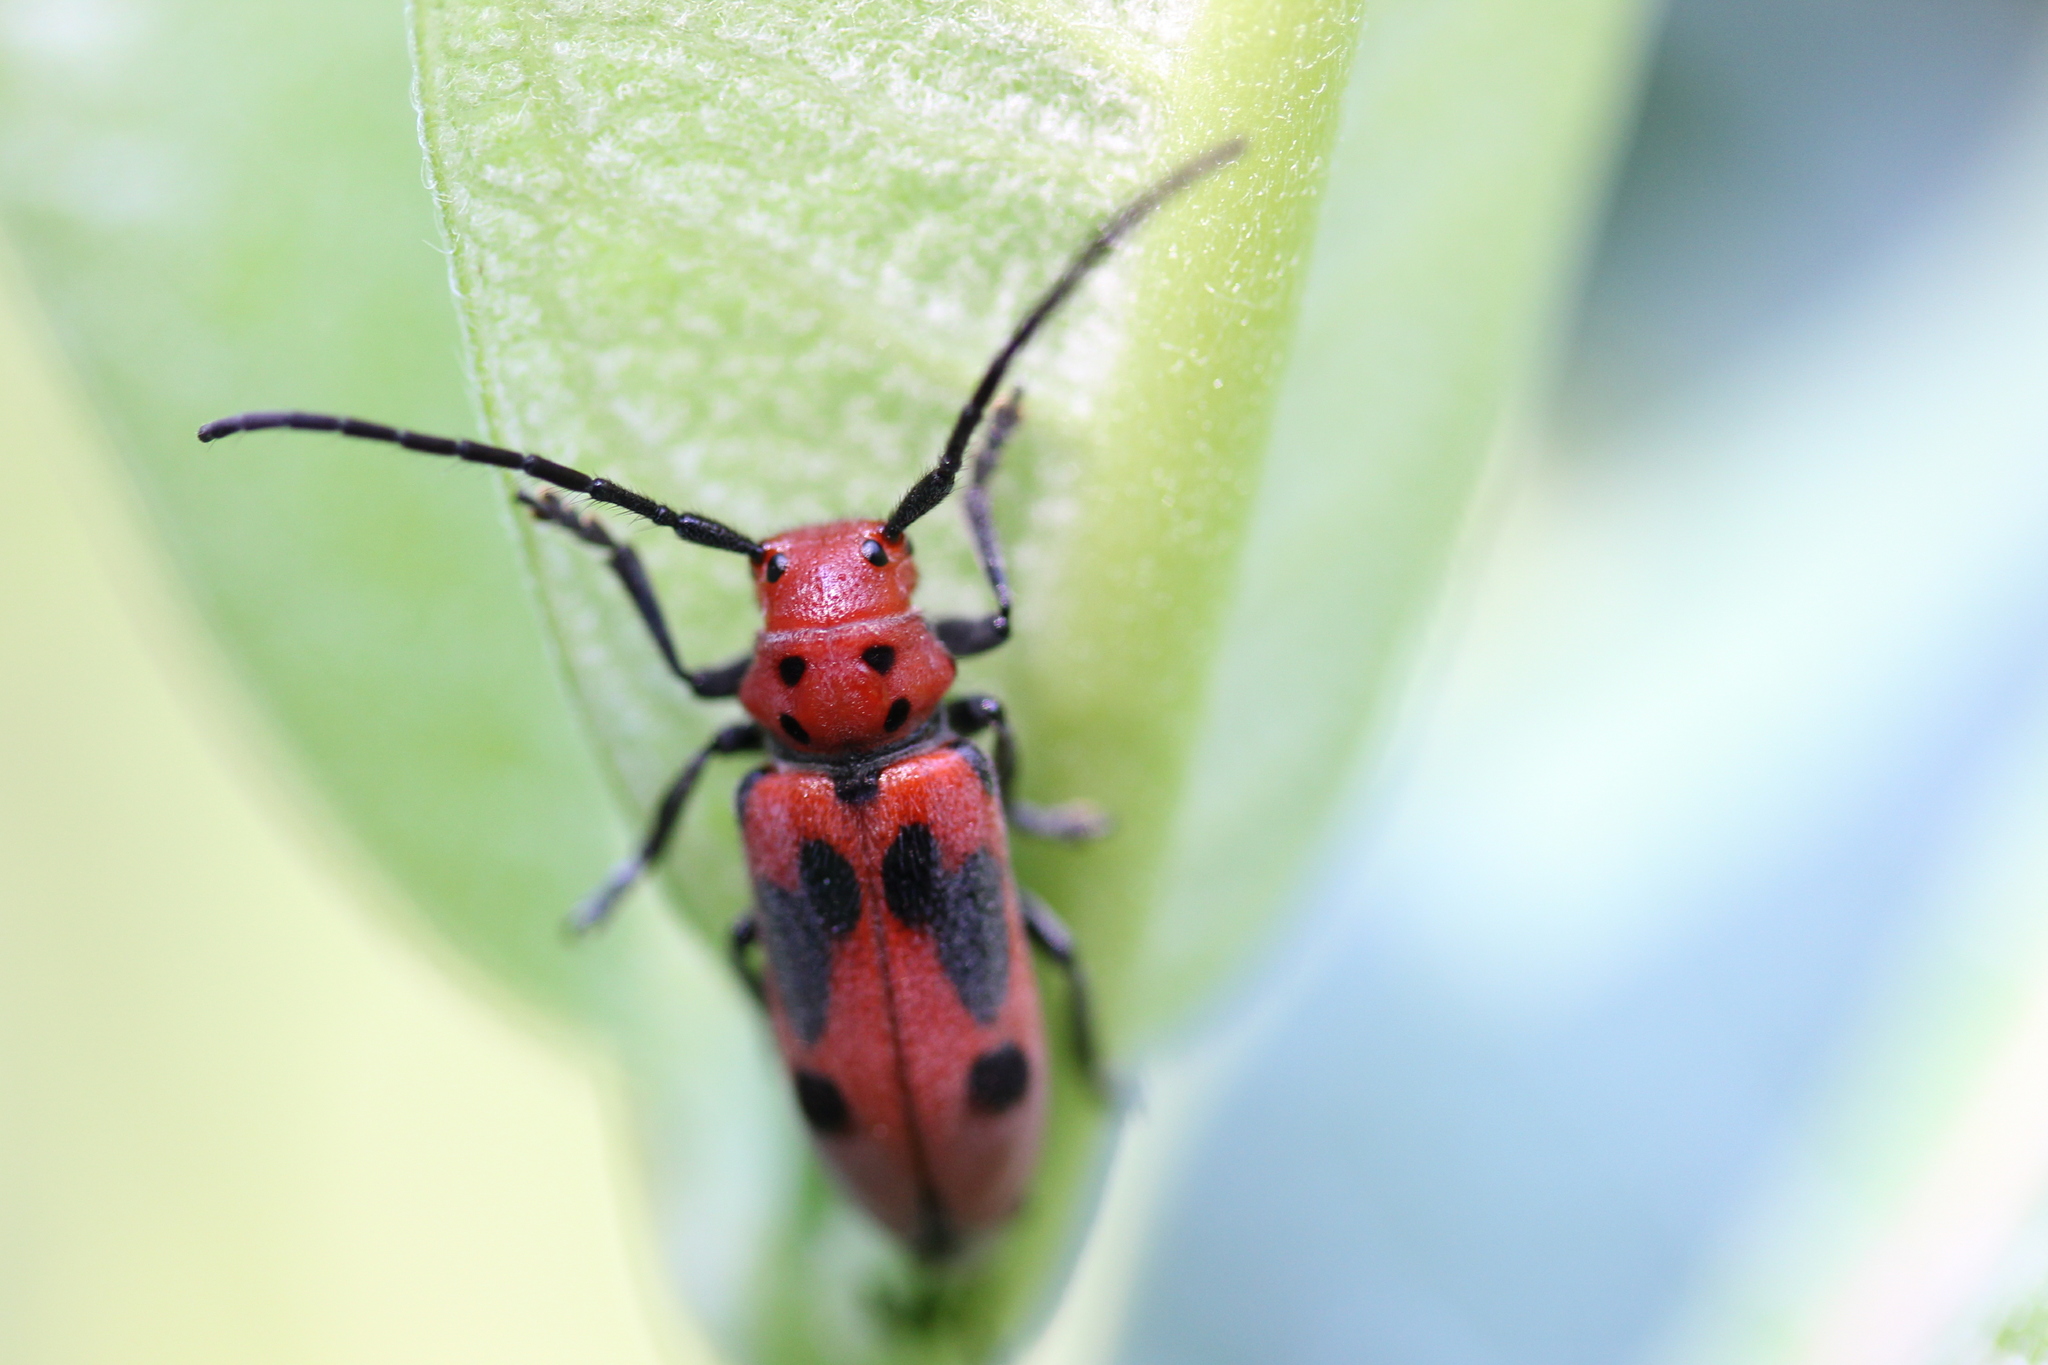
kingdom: Animalia
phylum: Arthropoda
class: Insecta
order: Coleoptera
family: Cerambycidae
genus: Tetraopes
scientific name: Tetraopes tetrophthalmus
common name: Red milkweed beetle
